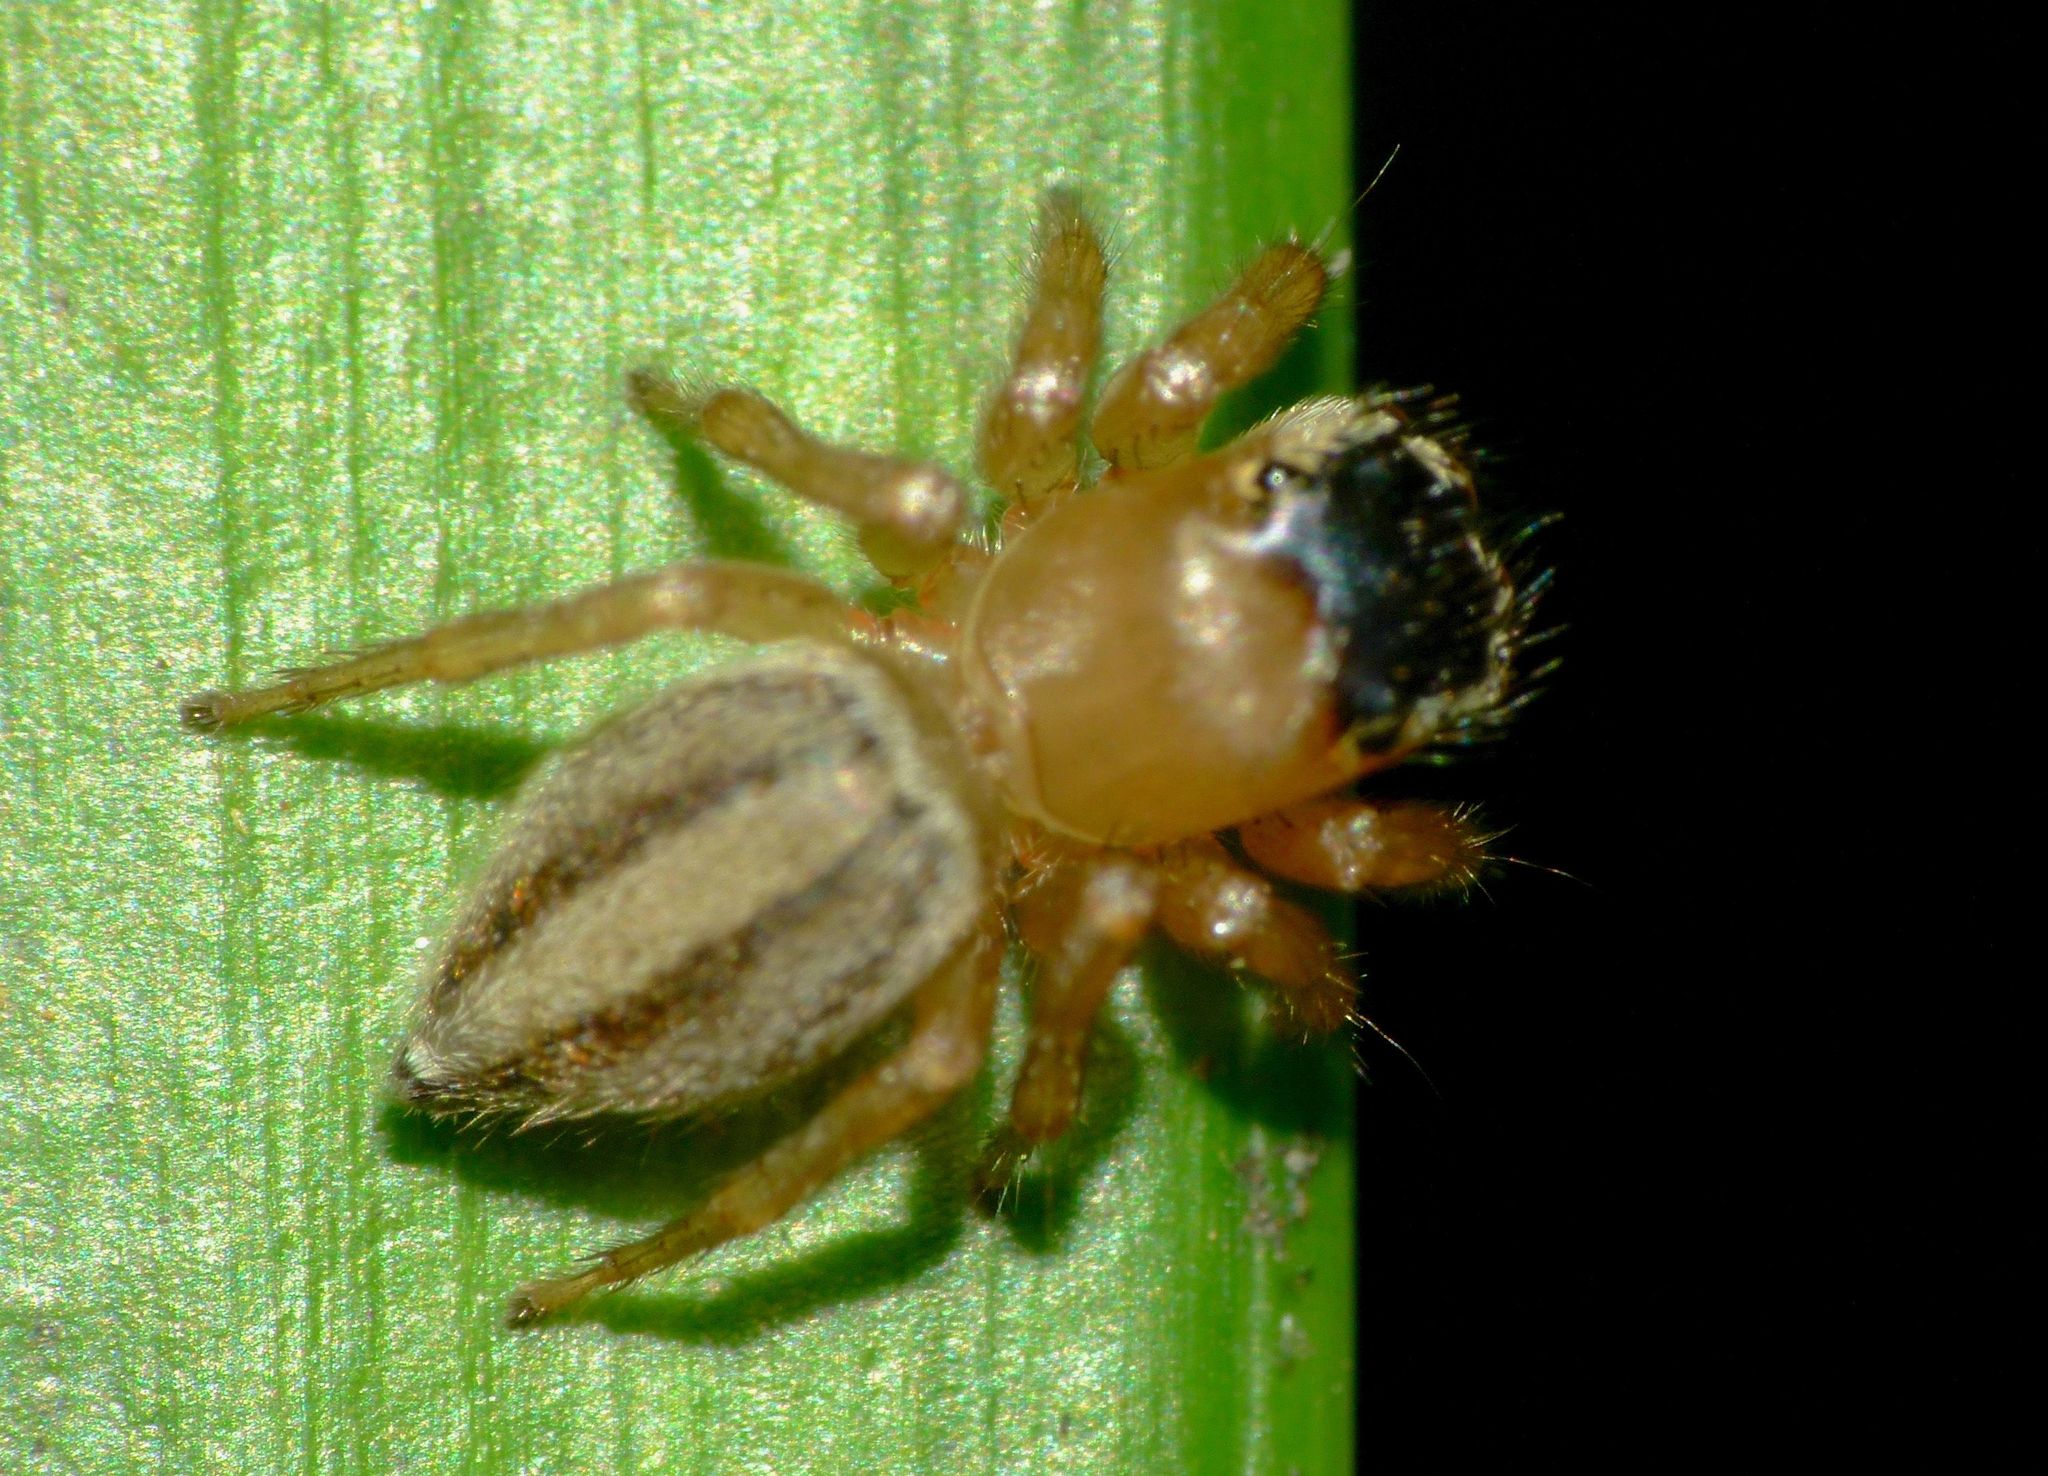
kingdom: Animalia
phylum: Arthropoda
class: Arachnida
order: Araneae
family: Salticidae
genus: Maratus
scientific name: Maratus scutulatus
